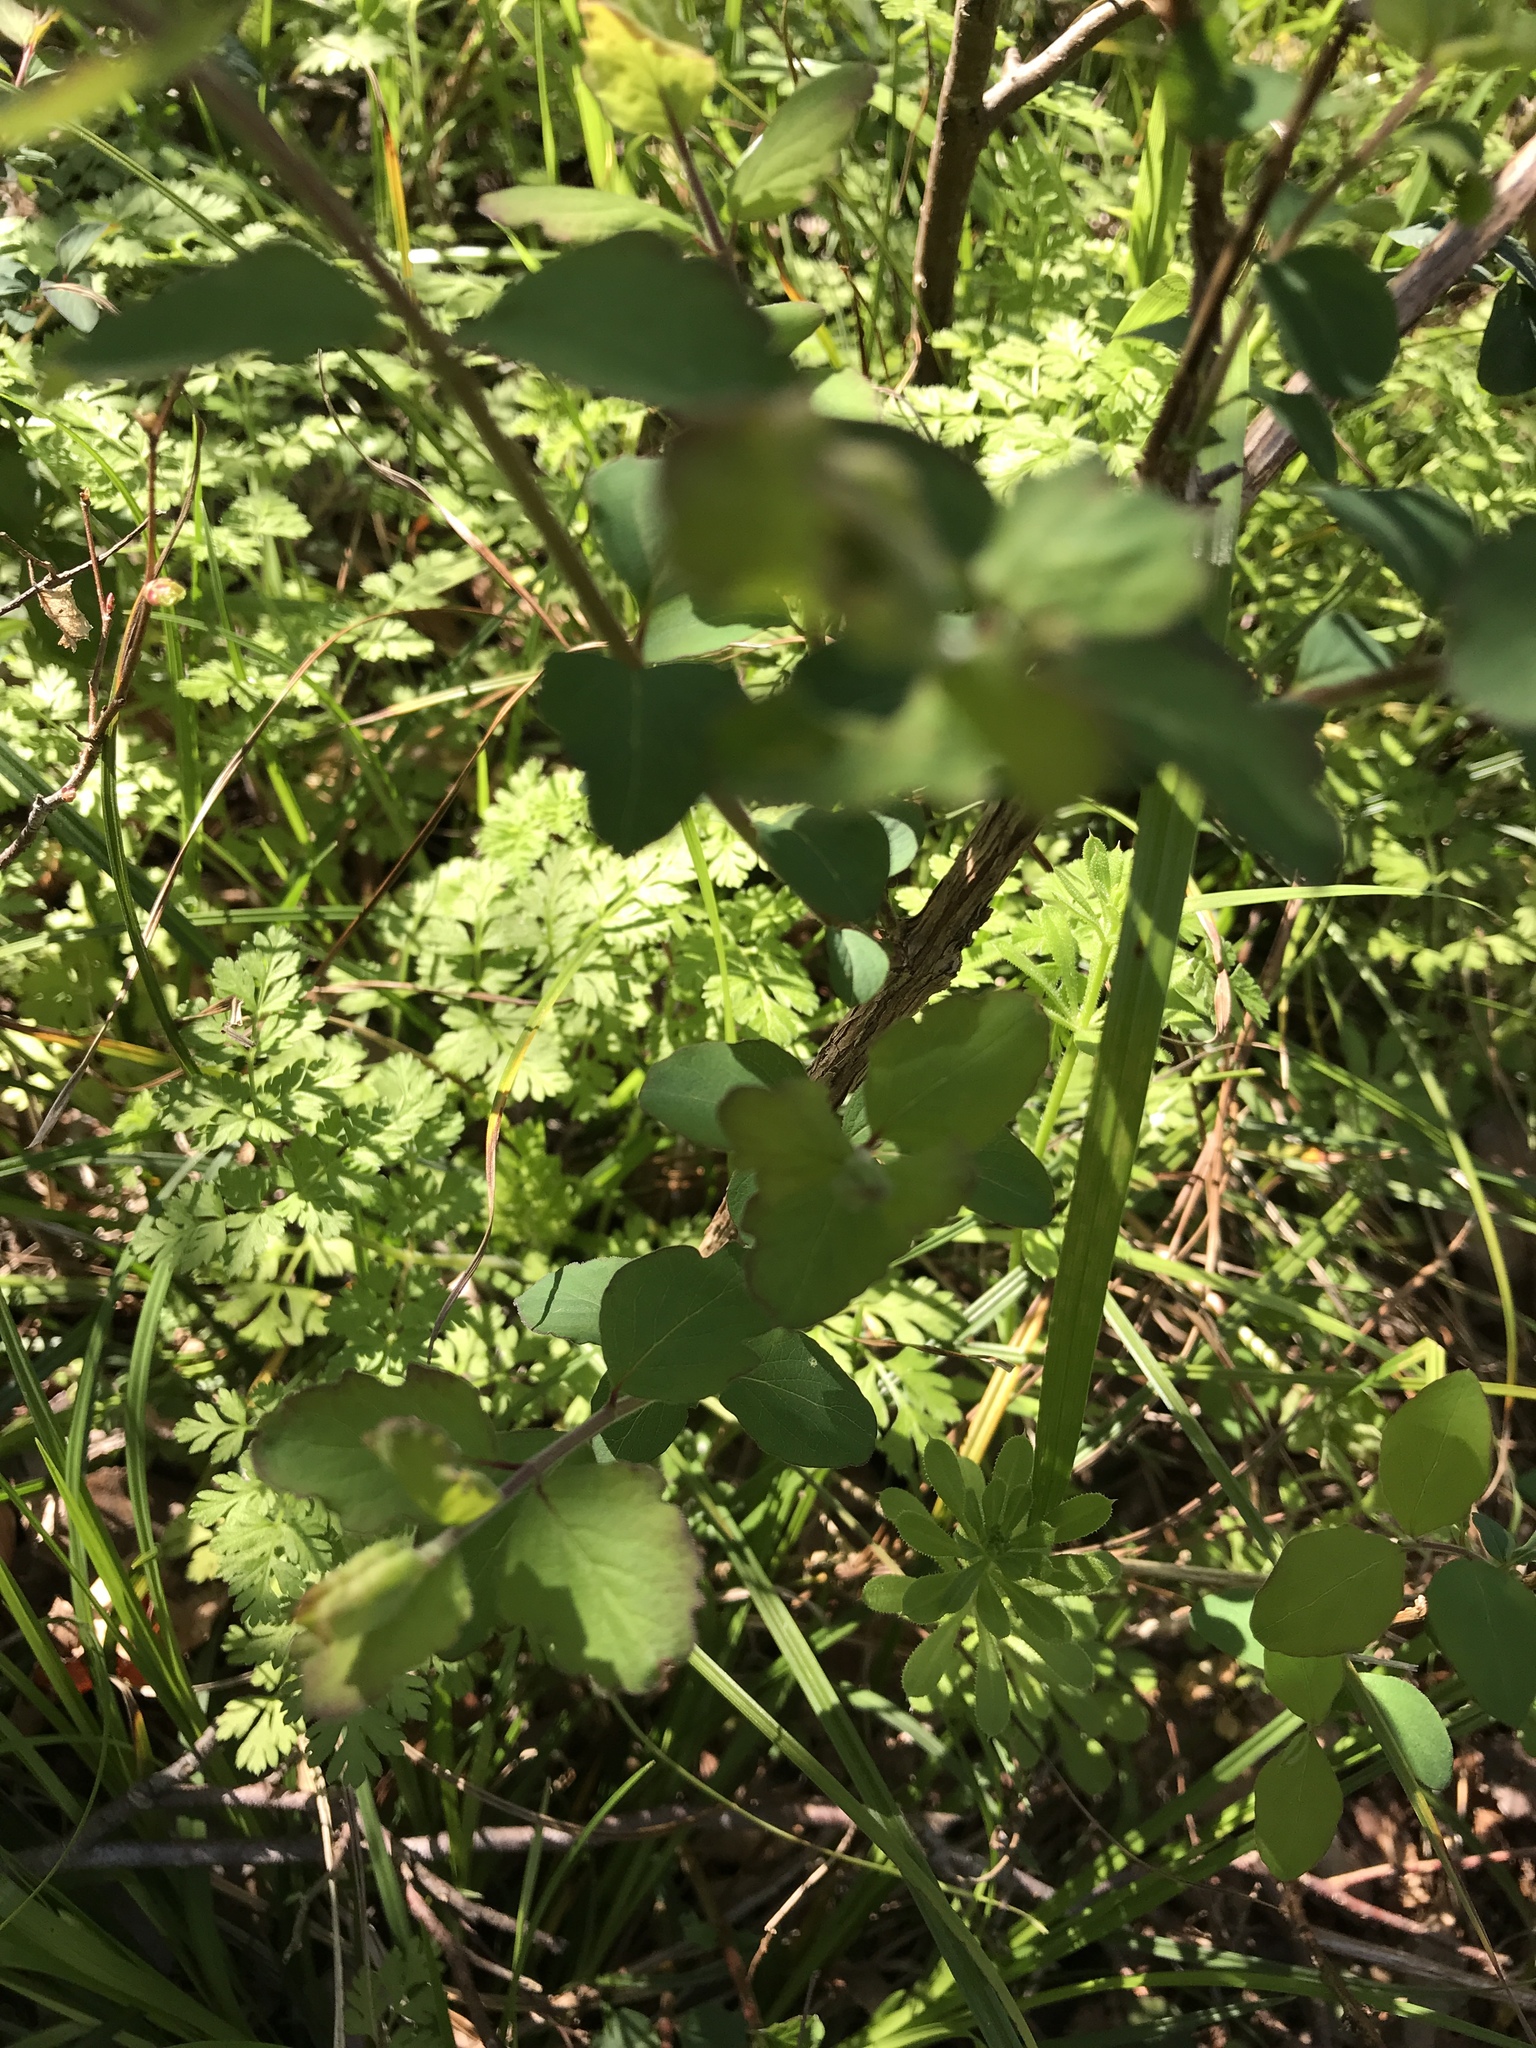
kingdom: Plantae
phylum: Tracheophyta
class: Magnoliopsida
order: Dipsacales
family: Caprifoliaceae
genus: Symphoricarpos
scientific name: Symphoricarpos orbiculatus
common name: Coralberry
